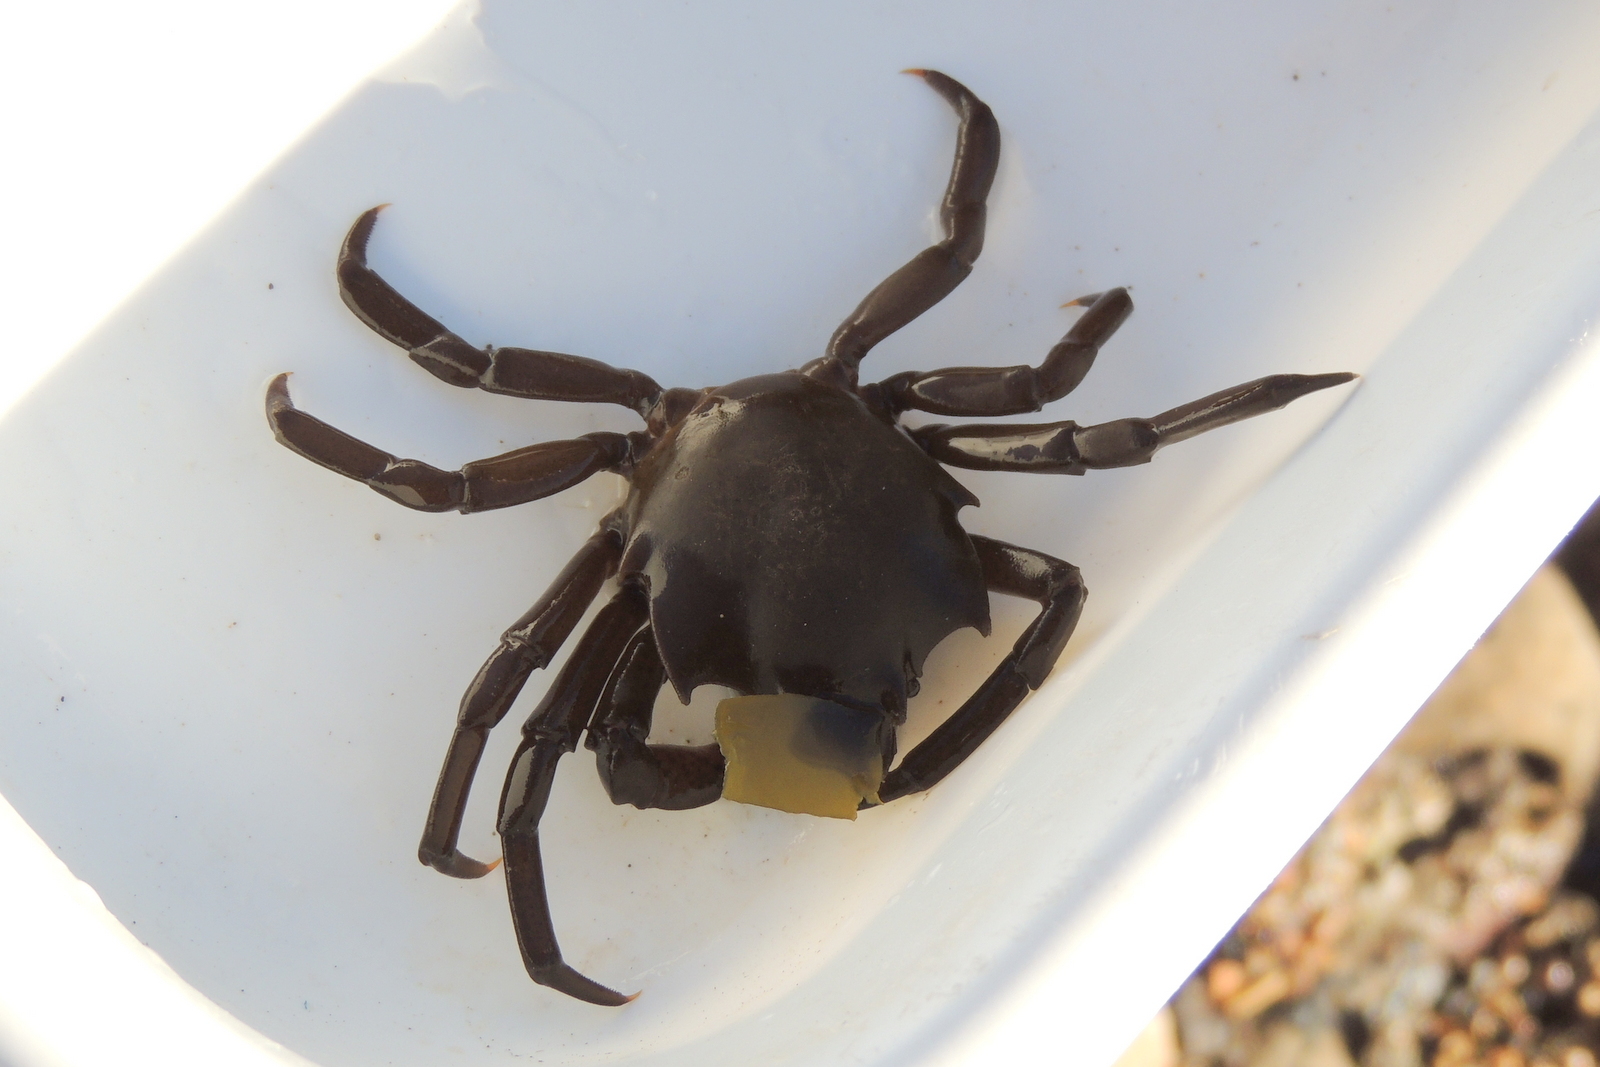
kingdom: Animalia
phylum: Arthropoda
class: Malacostraca
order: Decapoda
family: Epialtidae
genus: Pugettia
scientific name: Pugettia producta
